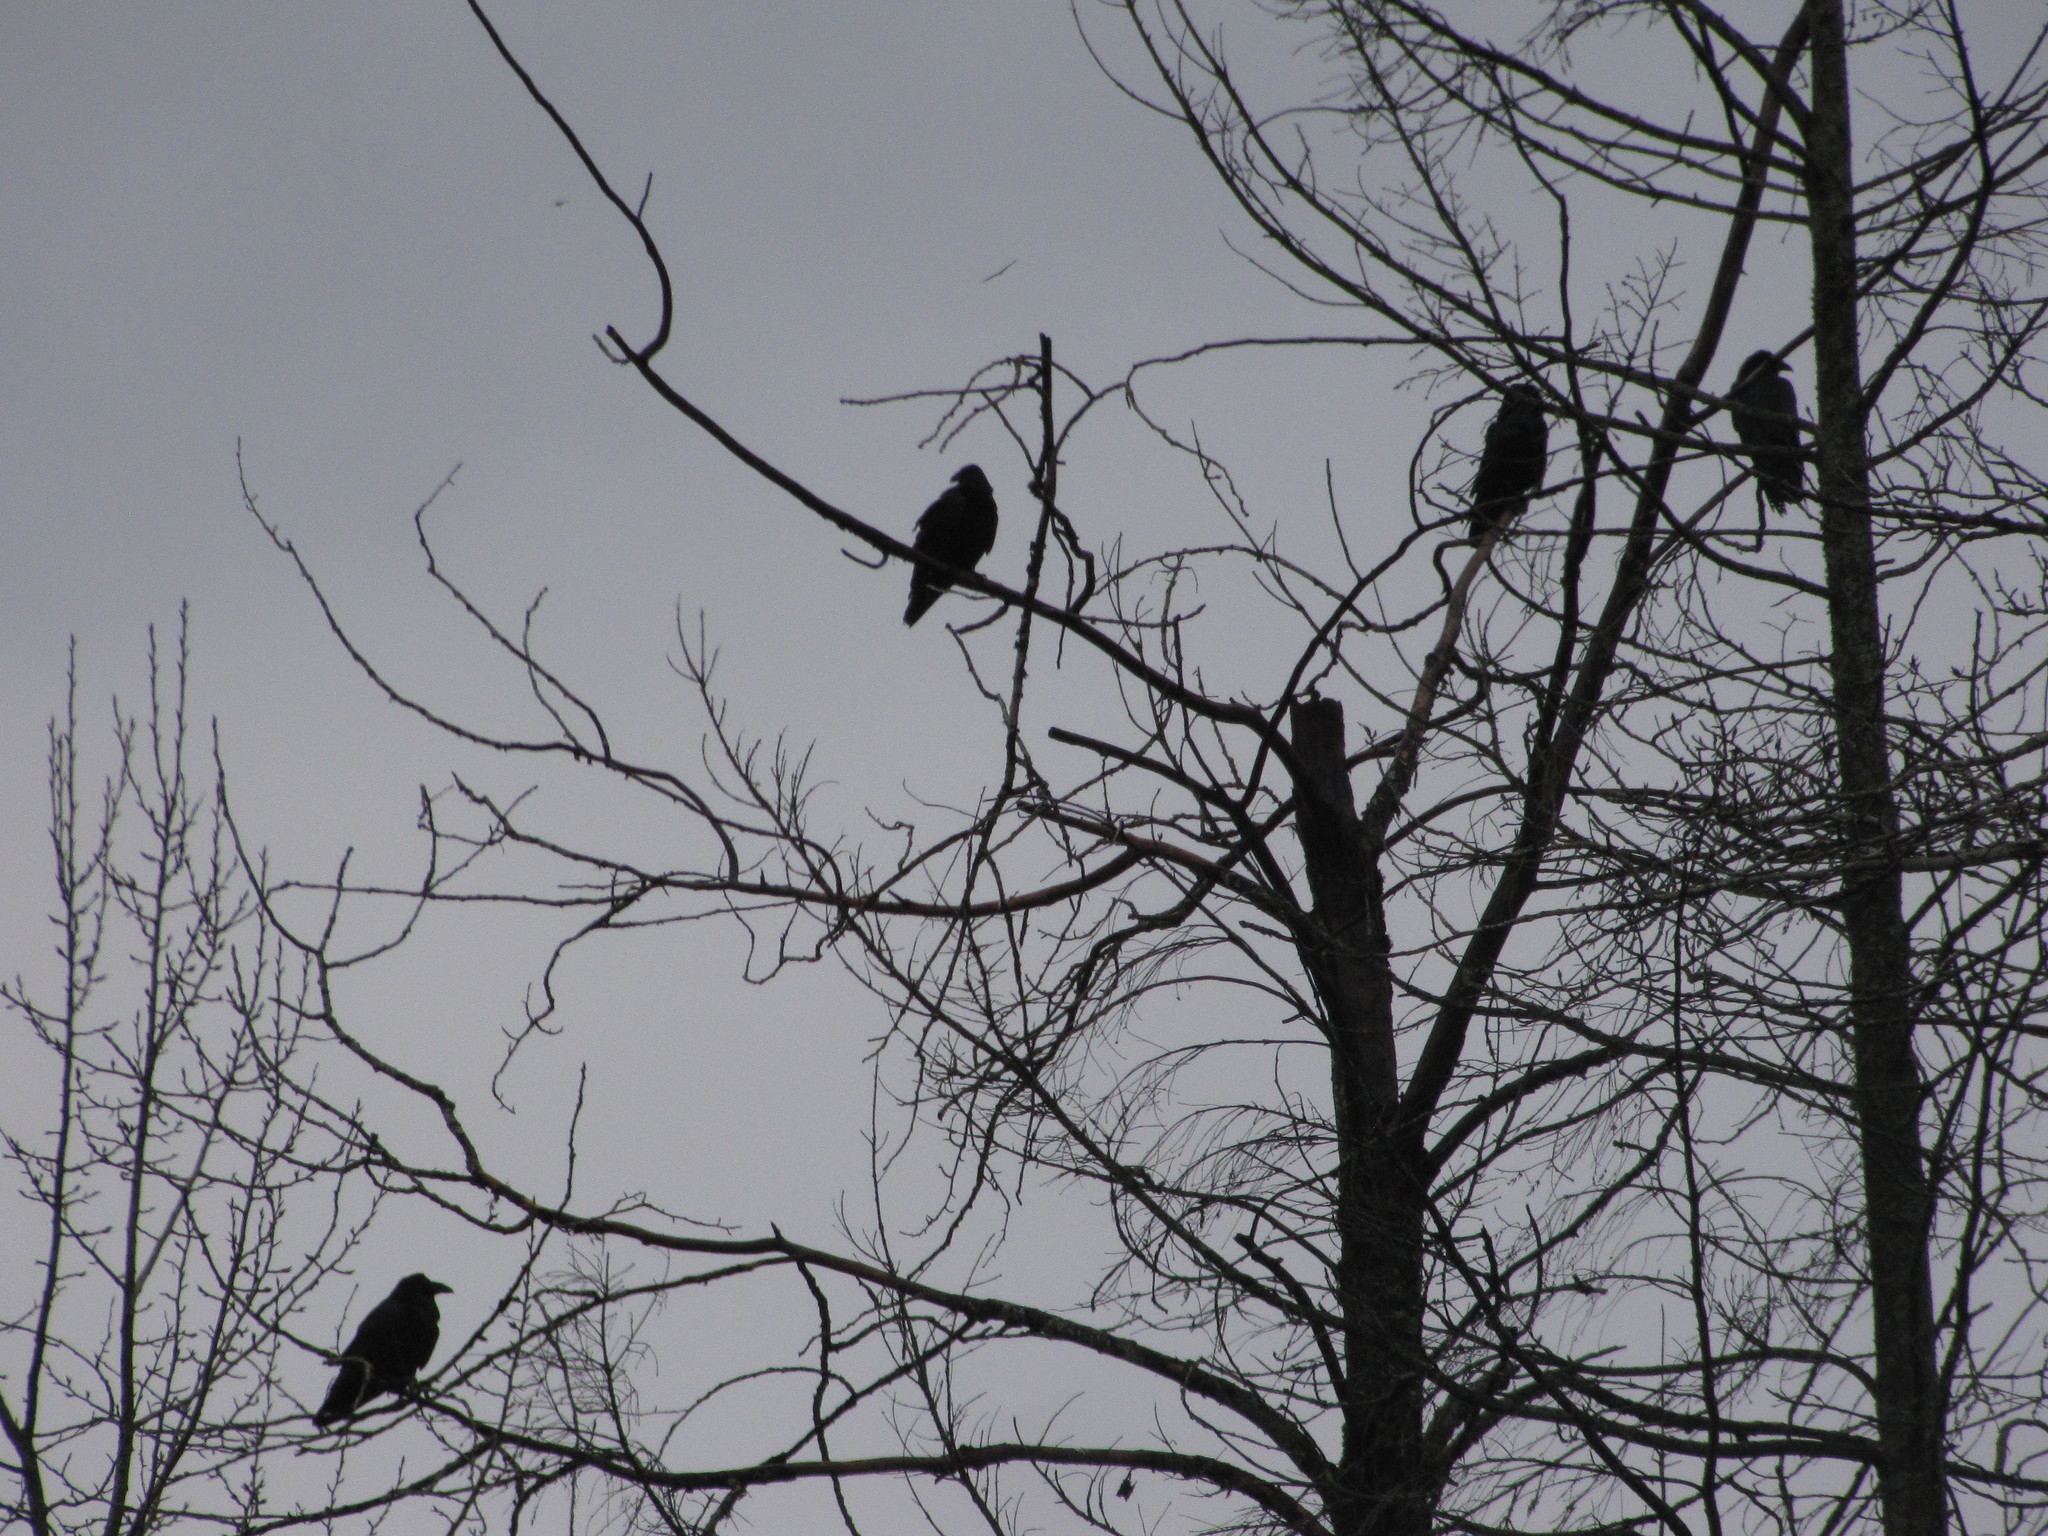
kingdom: Animalia
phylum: Chordata
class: Aves
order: Passeriformes
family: Corvidae
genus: Corvus
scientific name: Corvus corax
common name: Common raven
